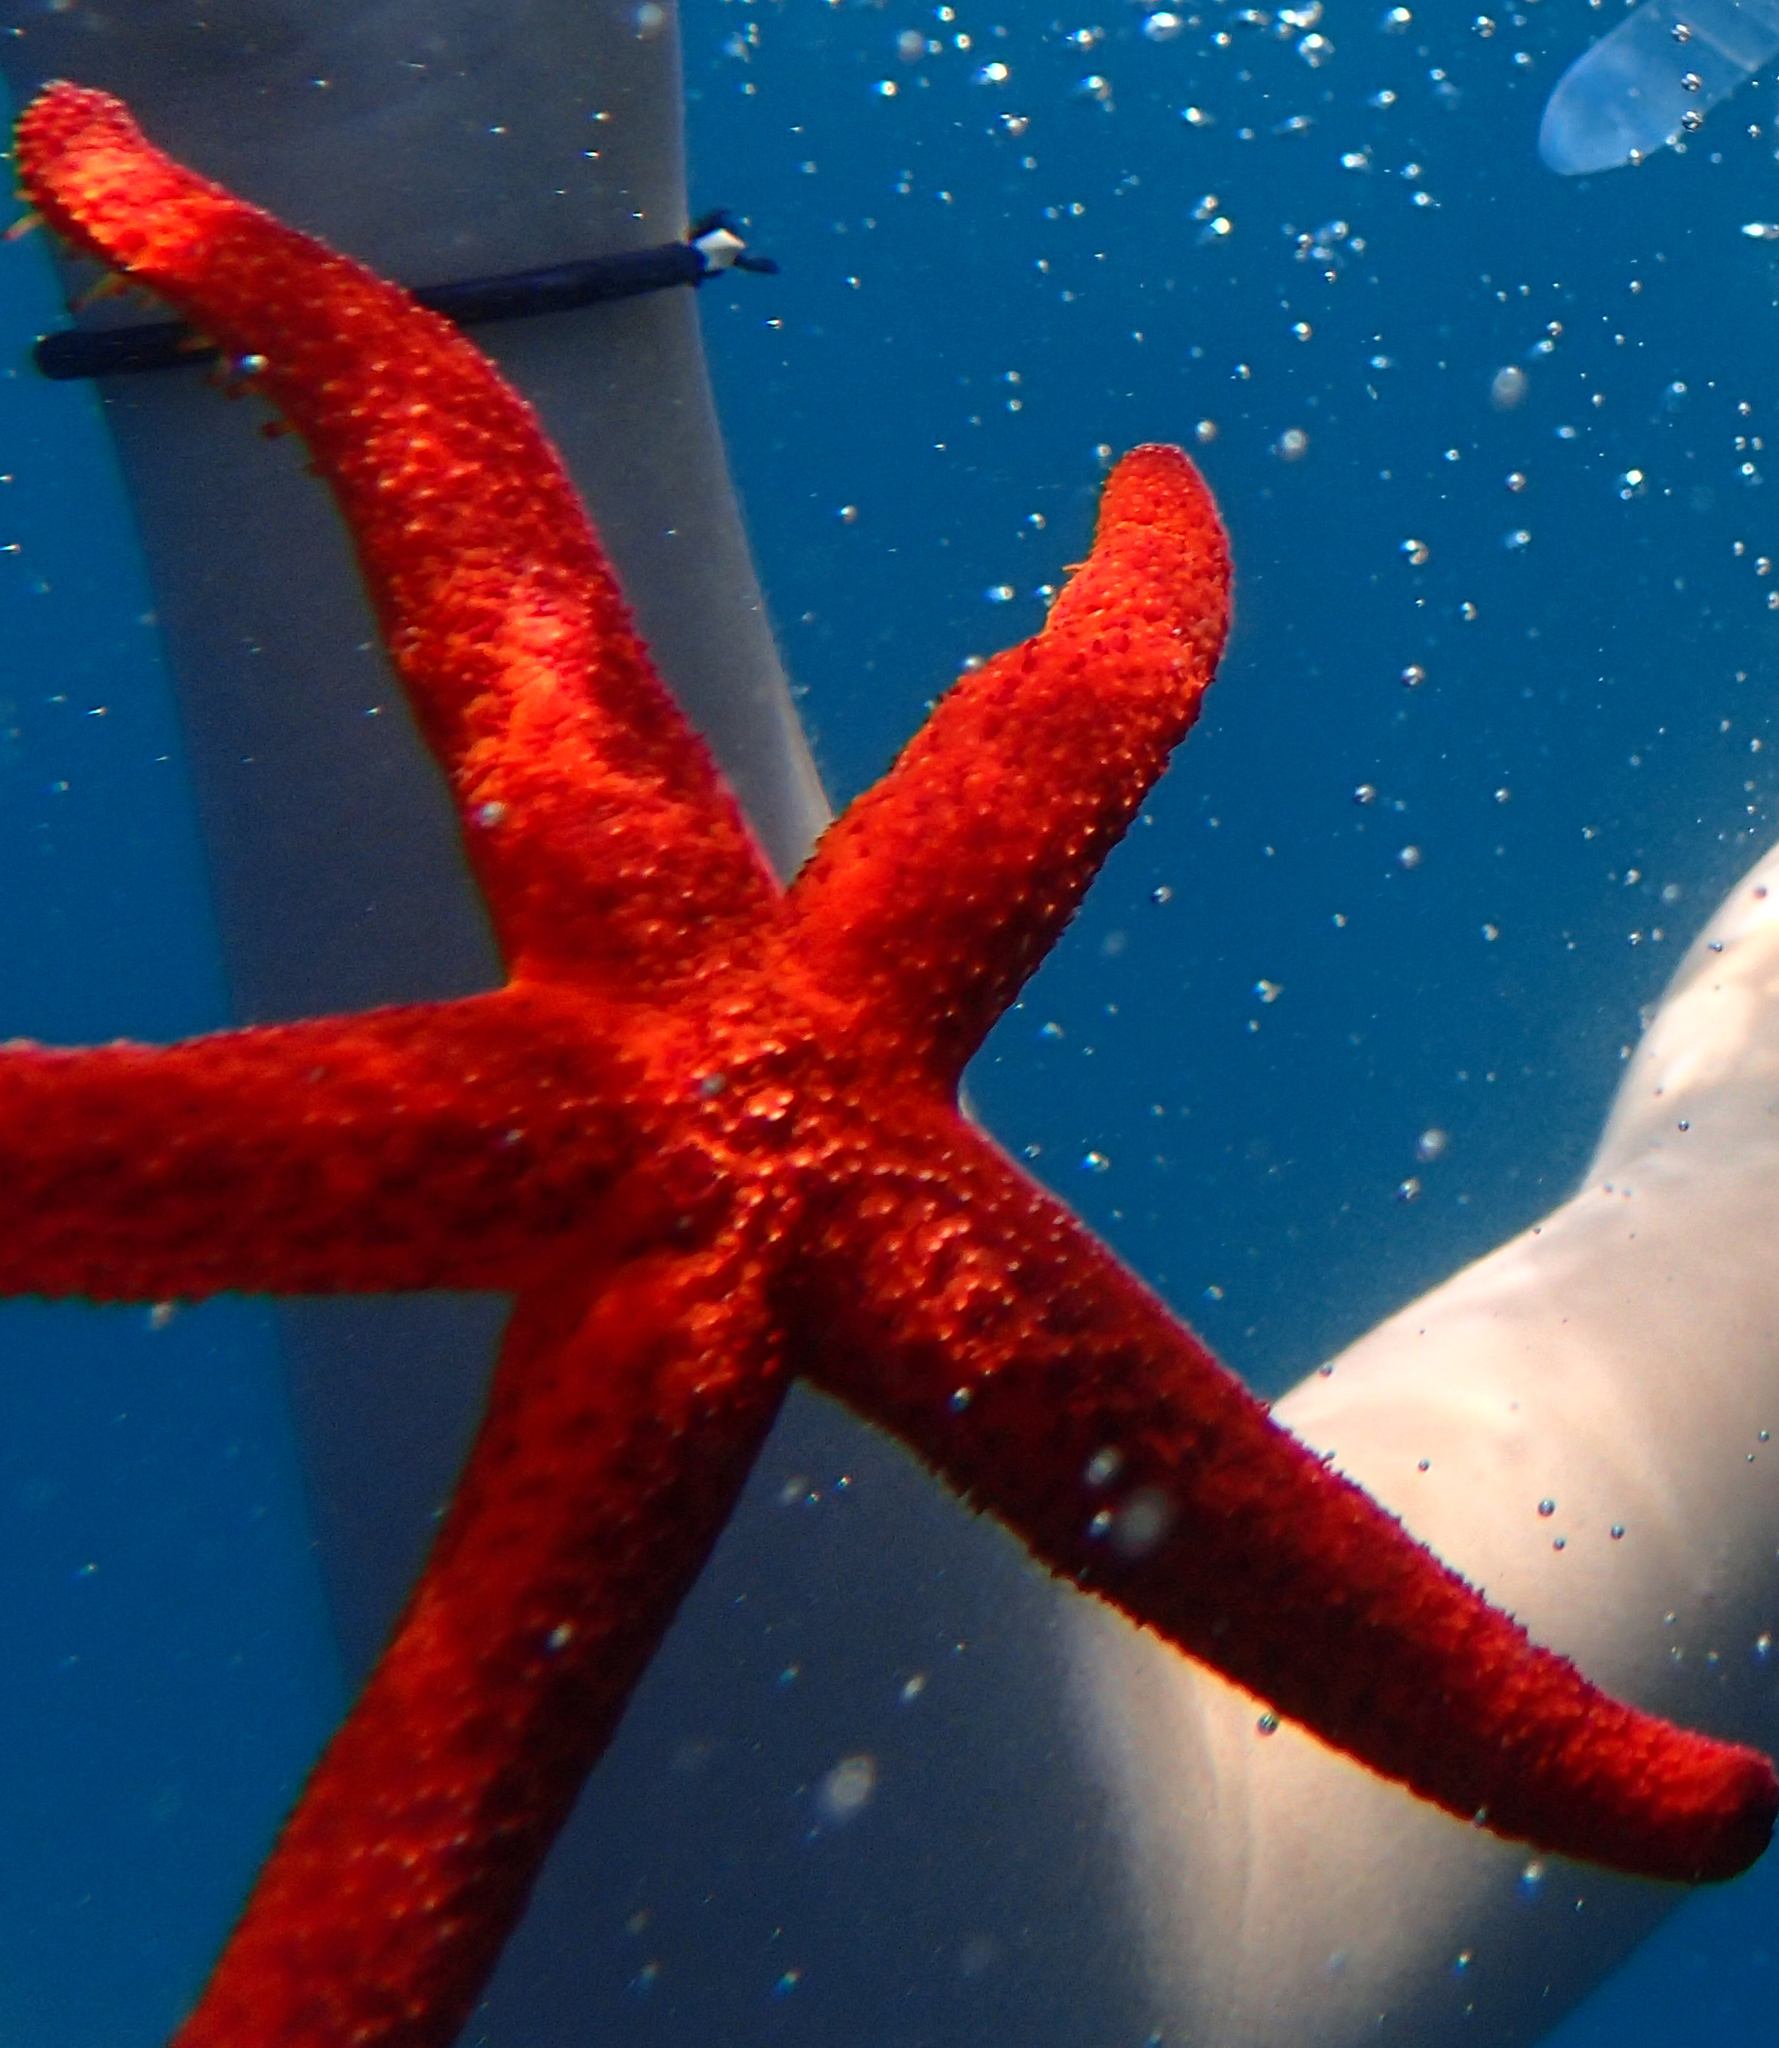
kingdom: Animalia
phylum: Echinodermata
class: Asteroidea
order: Spinulosida
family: Echinasteridae
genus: Echinaster
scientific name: Echinaster sepositus
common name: Red starfish
